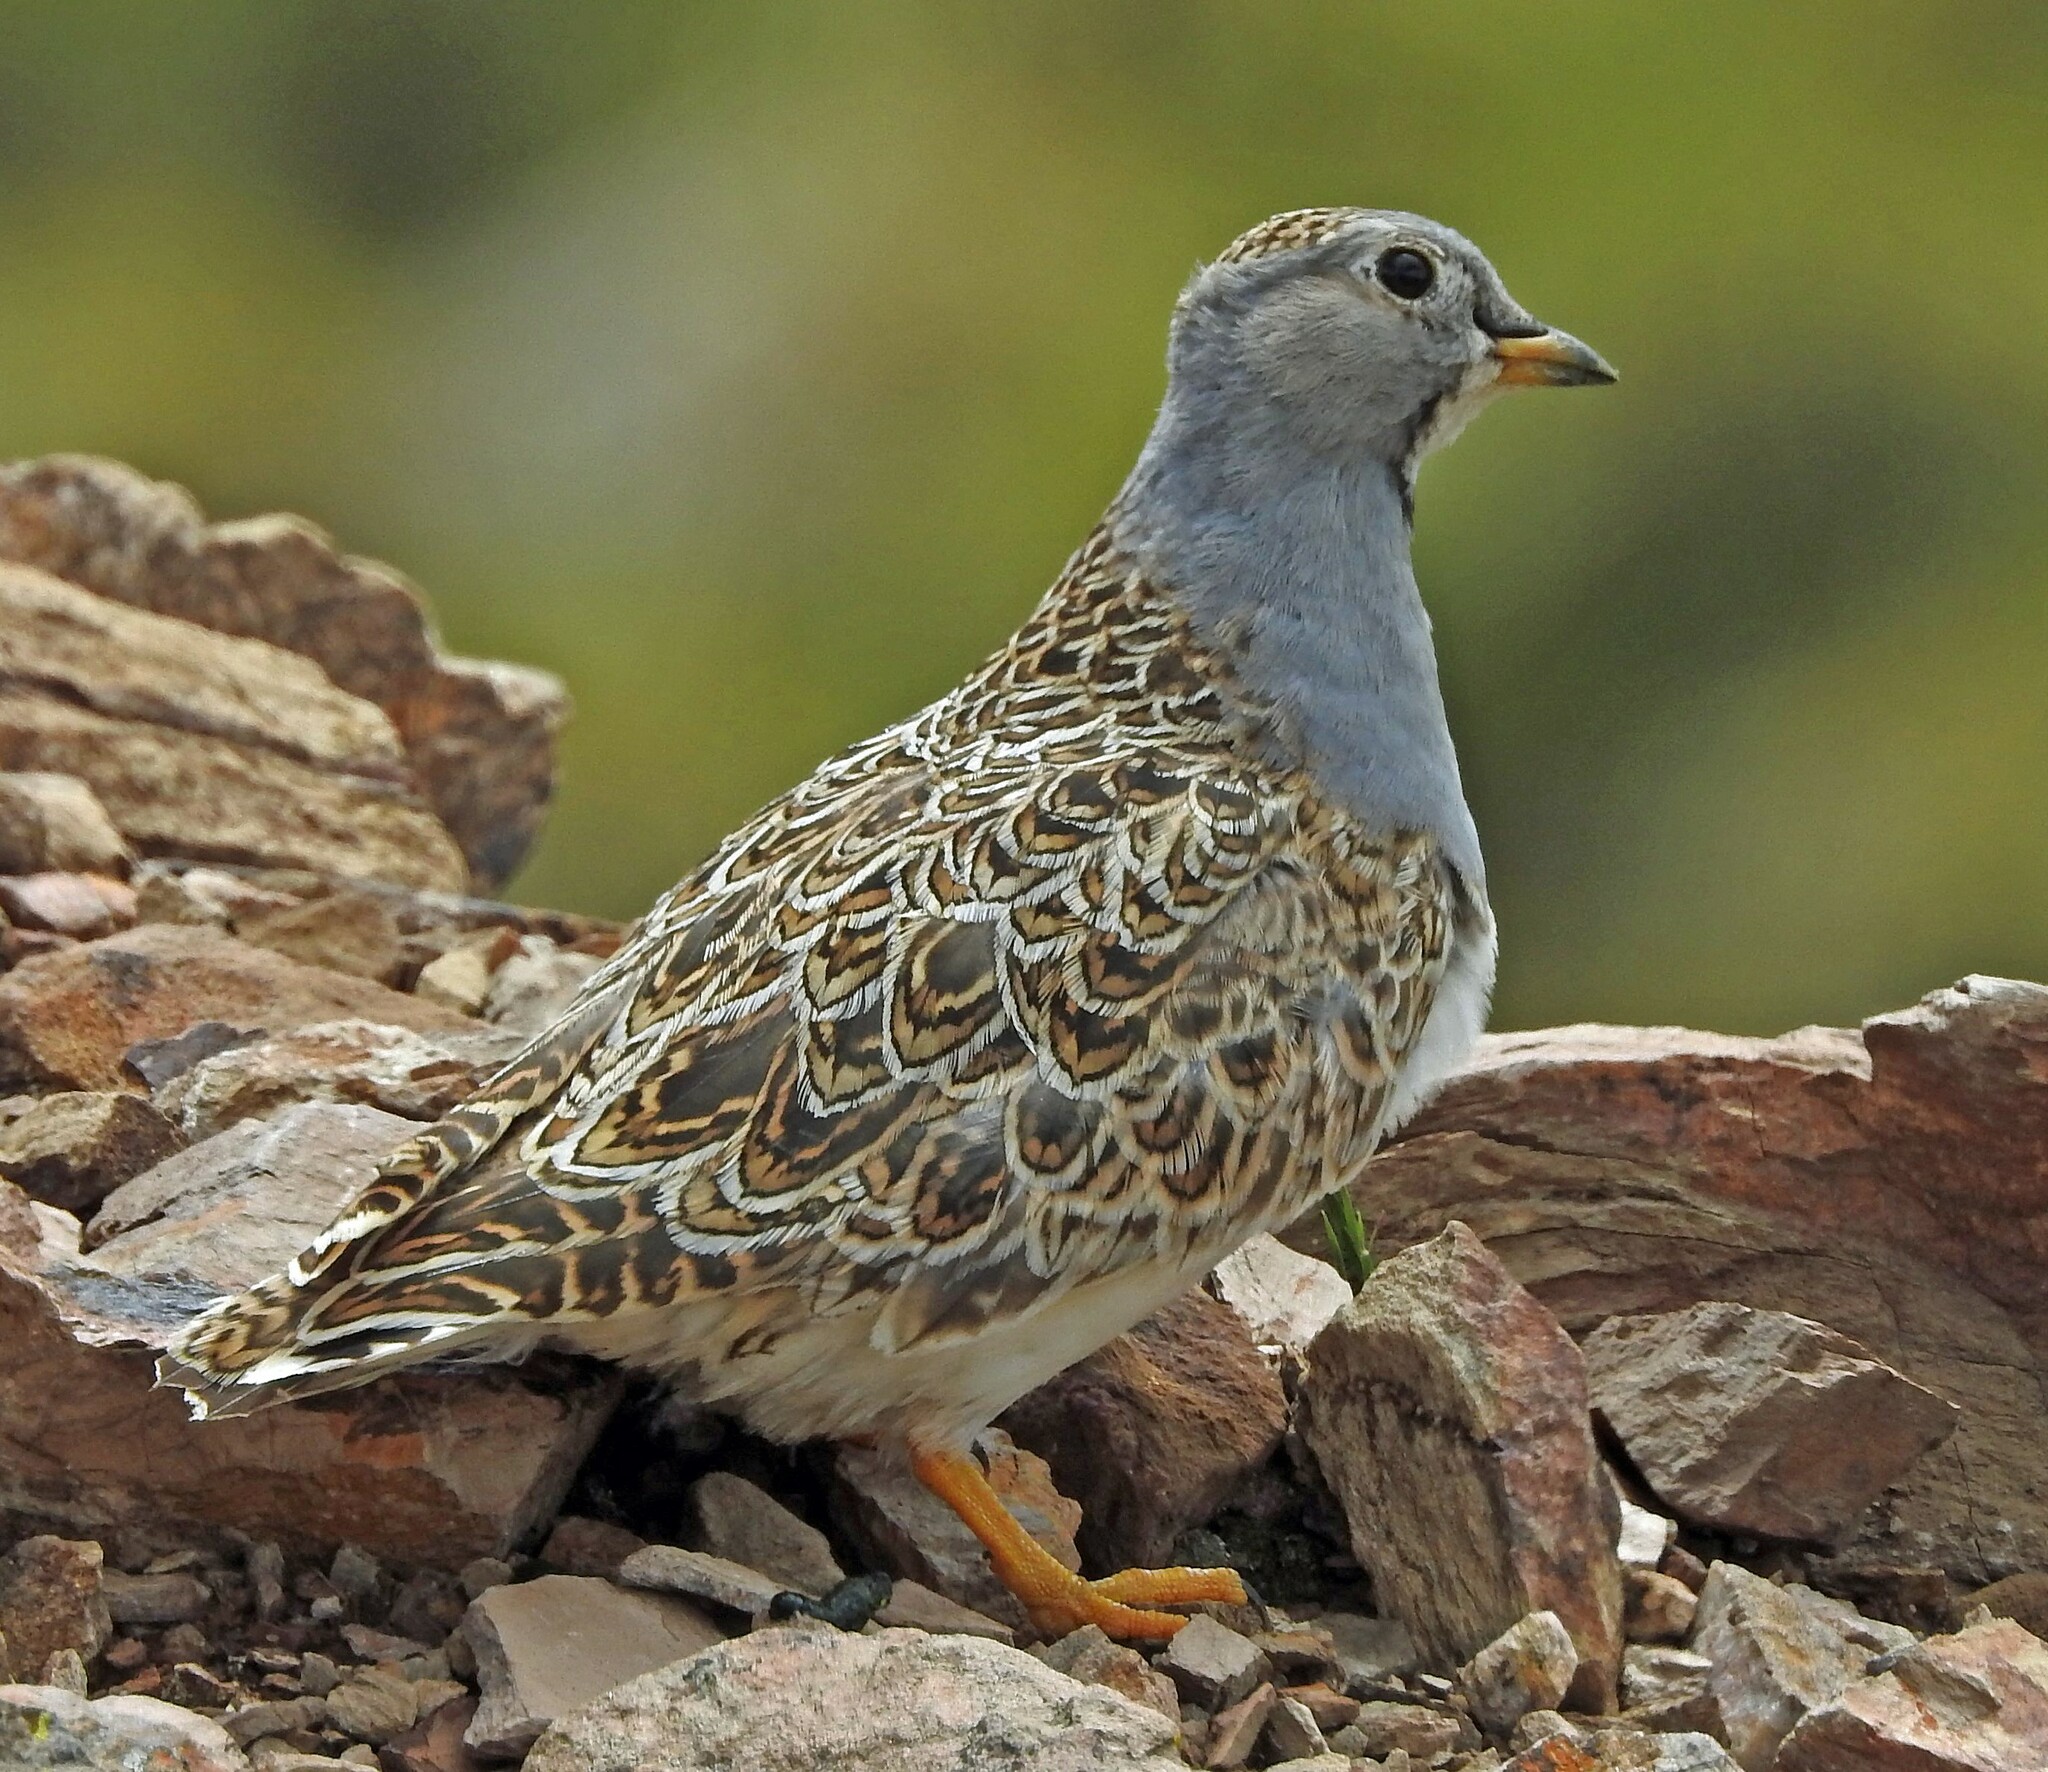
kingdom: Animalia
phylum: Chordata
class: Aves
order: Charadriiformes
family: Thinocoridae
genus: Thinocorus
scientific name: Thinocorus orbignyianus
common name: Grey-breasted seedsnipe
